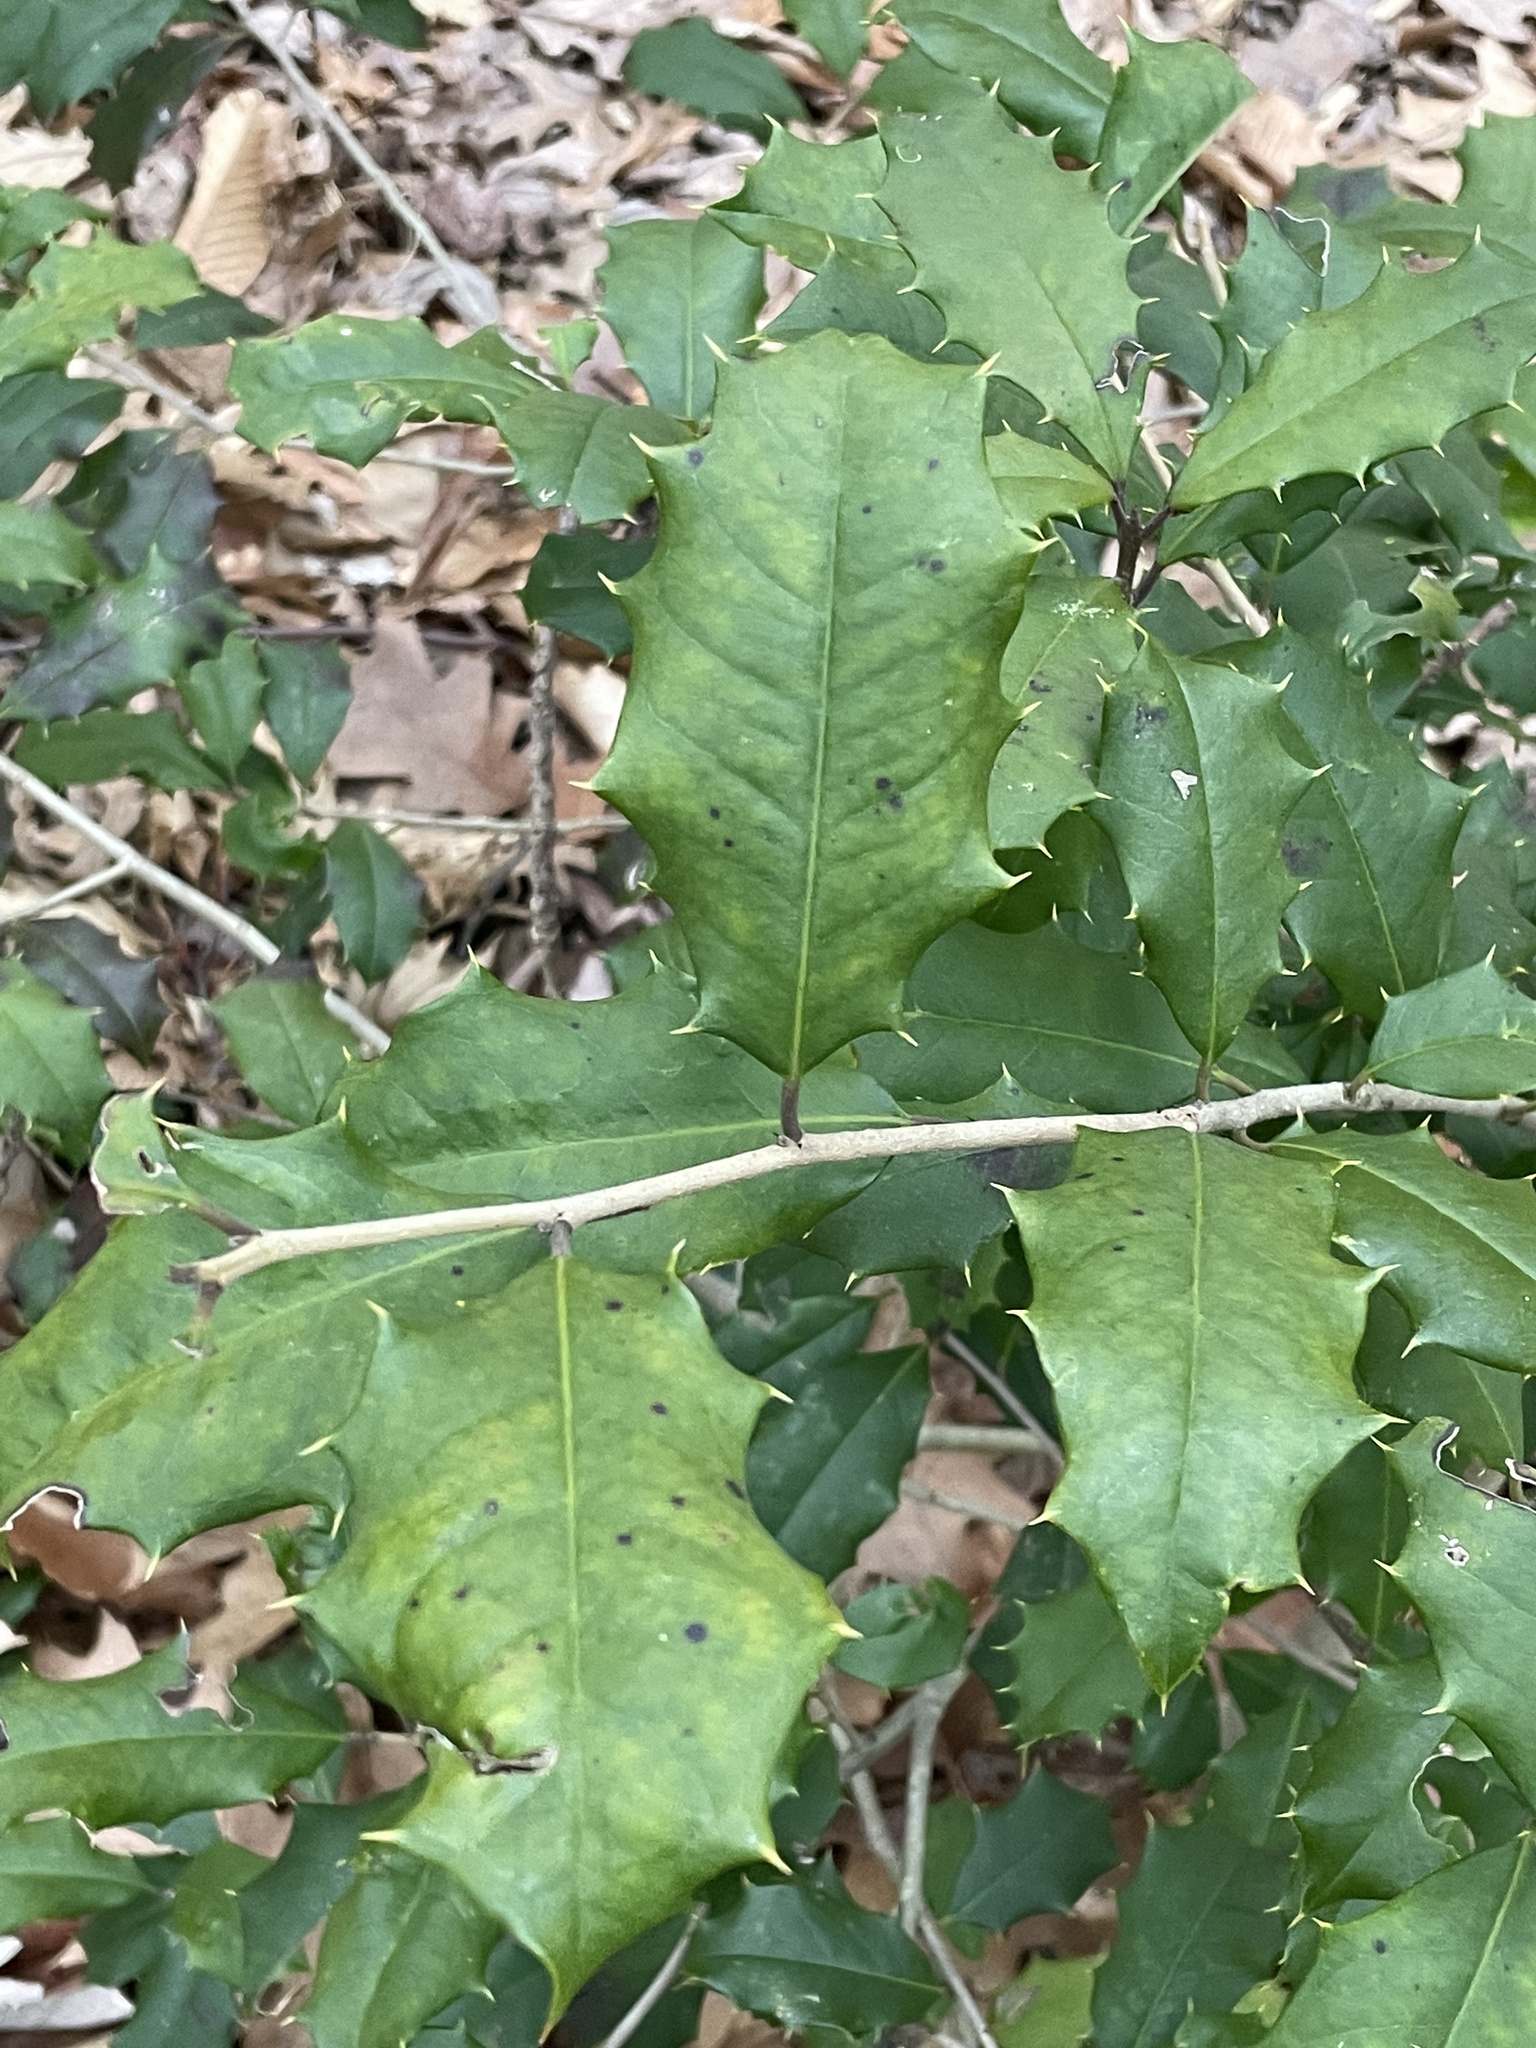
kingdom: Plantae
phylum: Tracheophyta
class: Magnoliopsida
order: Aquifoliales
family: Aquifoliaceae
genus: Ilex
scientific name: Ilex opaca
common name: American holly
